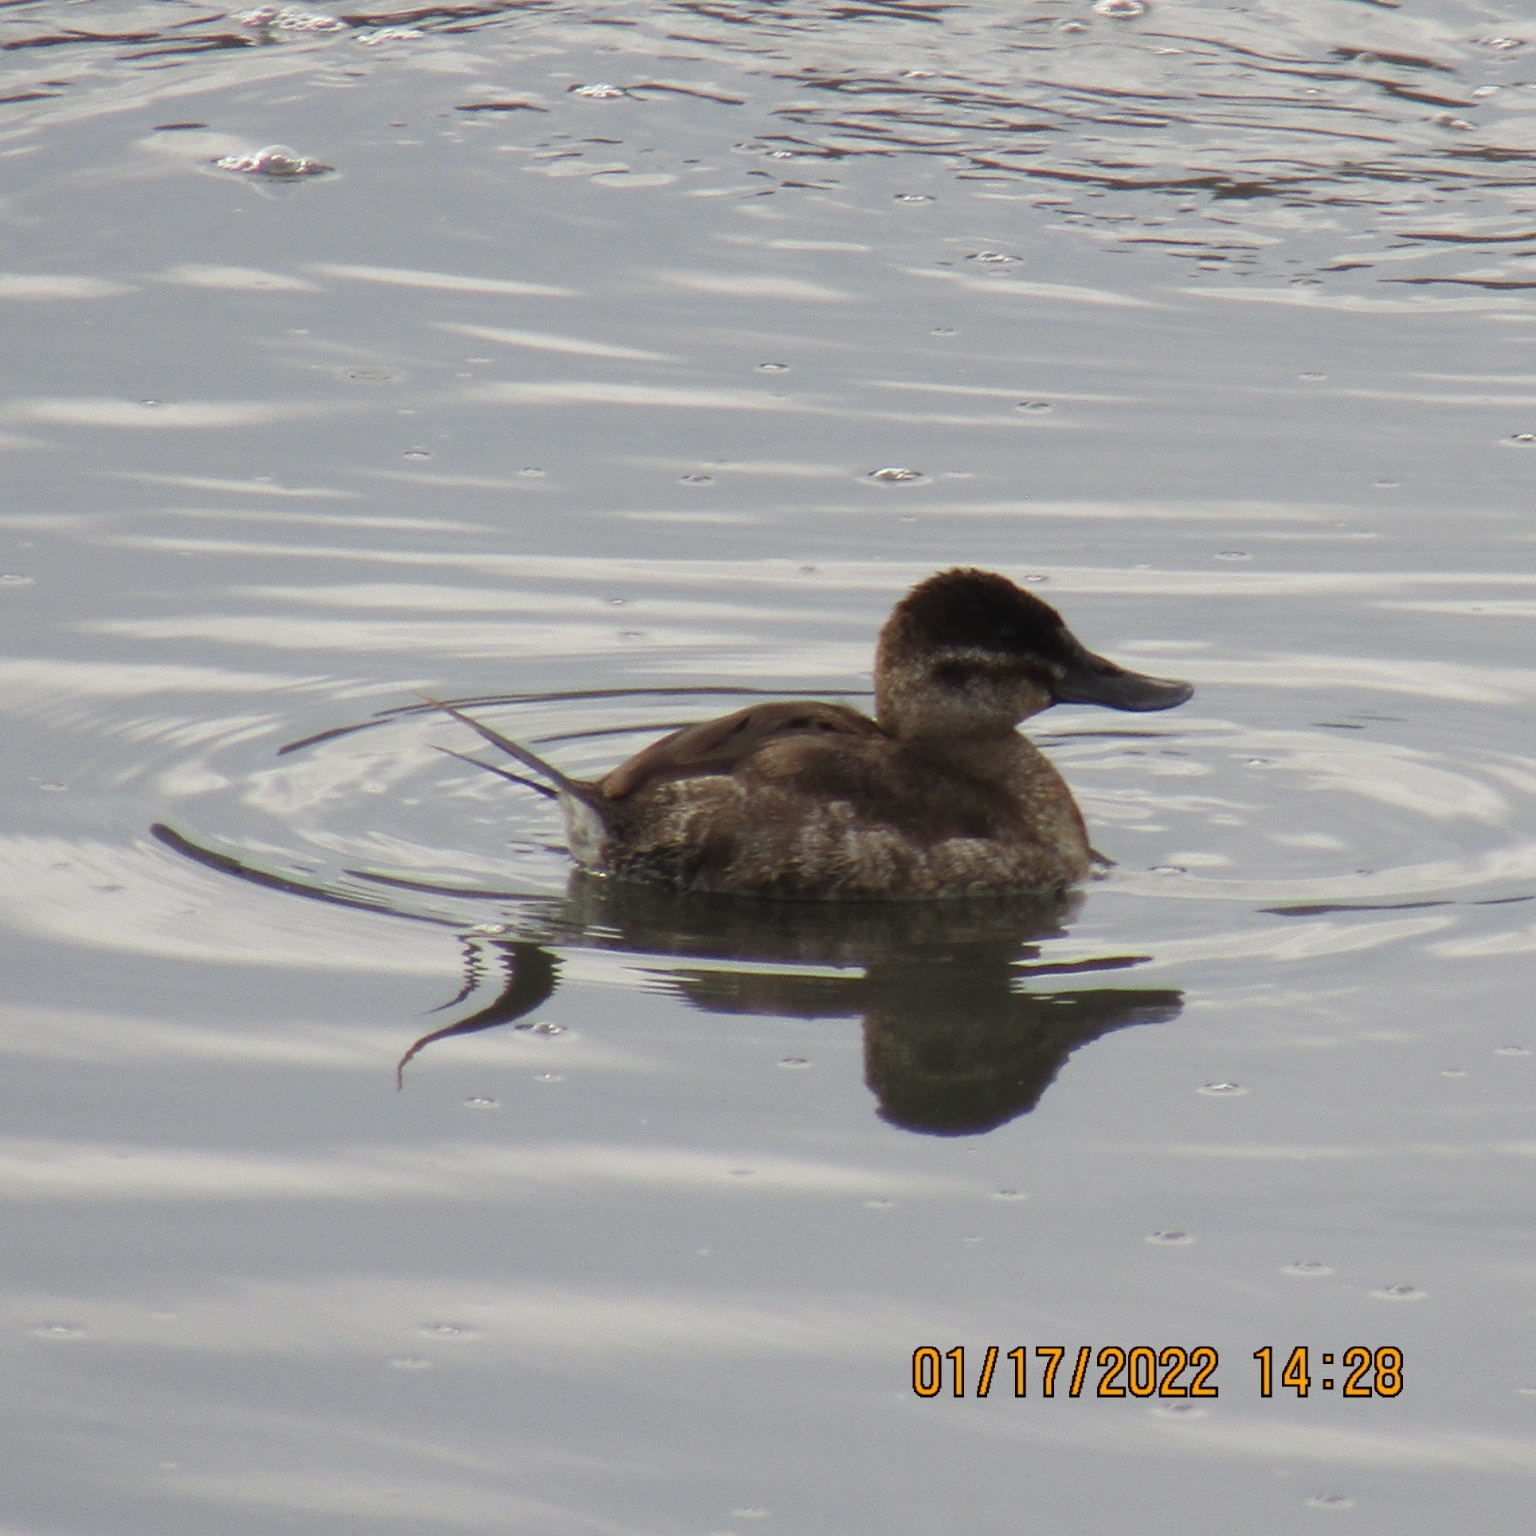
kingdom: Animalia
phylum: Chordata
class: Aves
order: Anseriformes
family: Anatidae
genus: Oxyura
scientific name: Oxyura jamaicensis
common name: Ruddy duck
